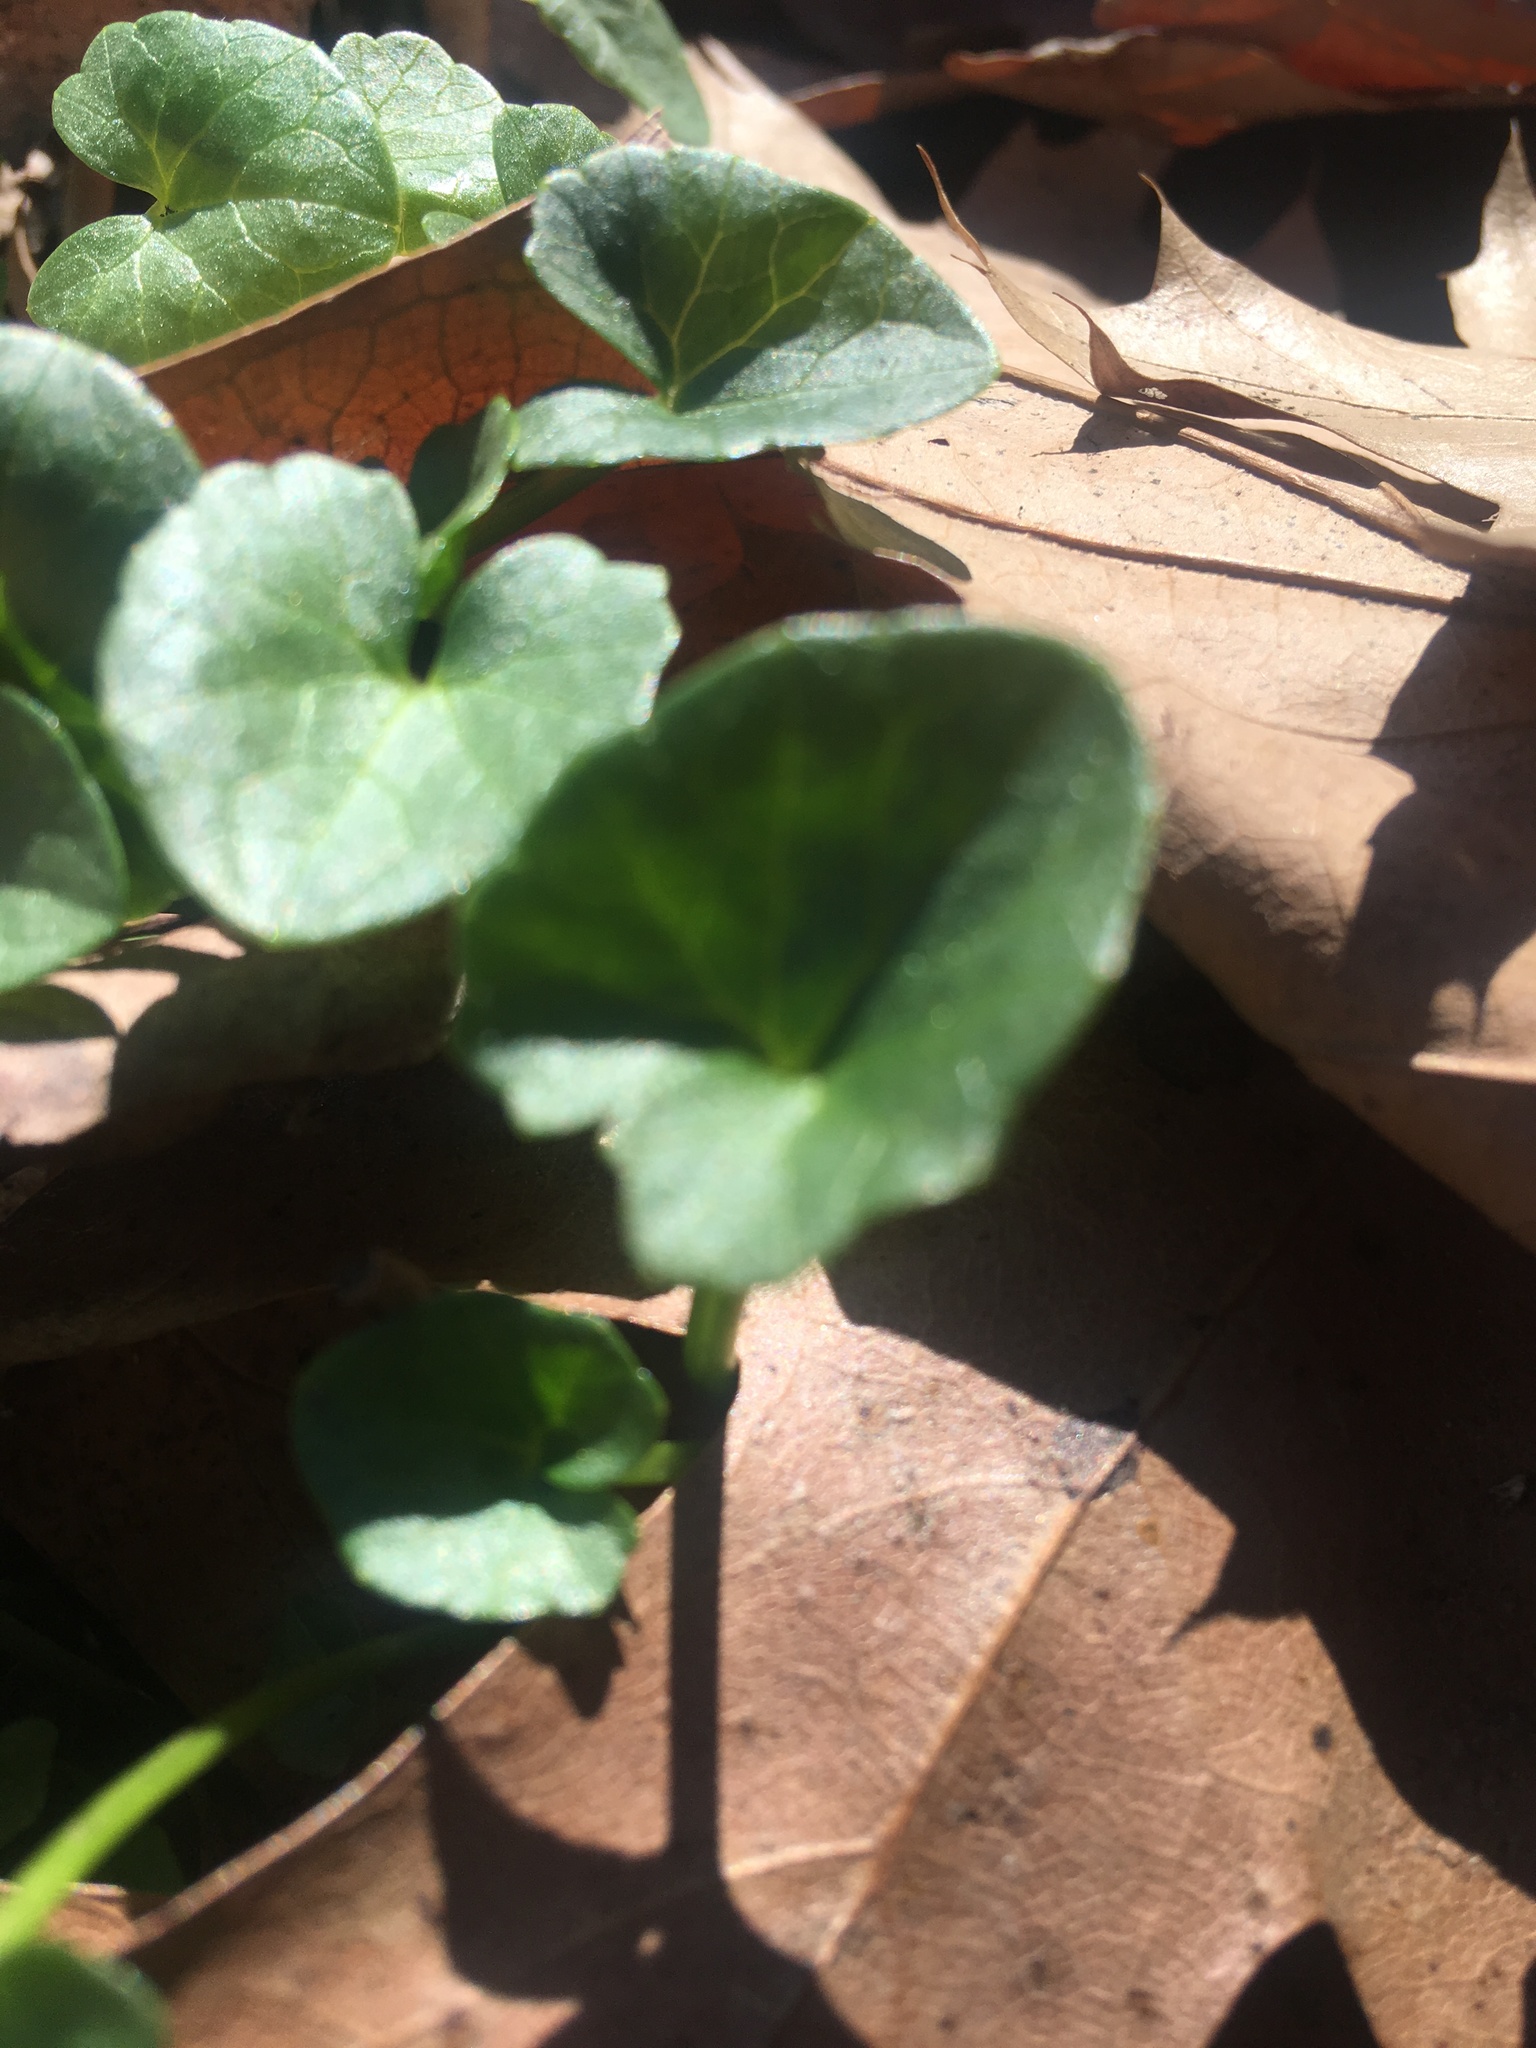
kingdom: Plantae
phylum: Tracheophyta
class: Magnoliopsida
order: Ranunculales
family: Ranunculaceae
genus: Ficaria
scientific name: Ficaria verna
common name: Lesser celandine
